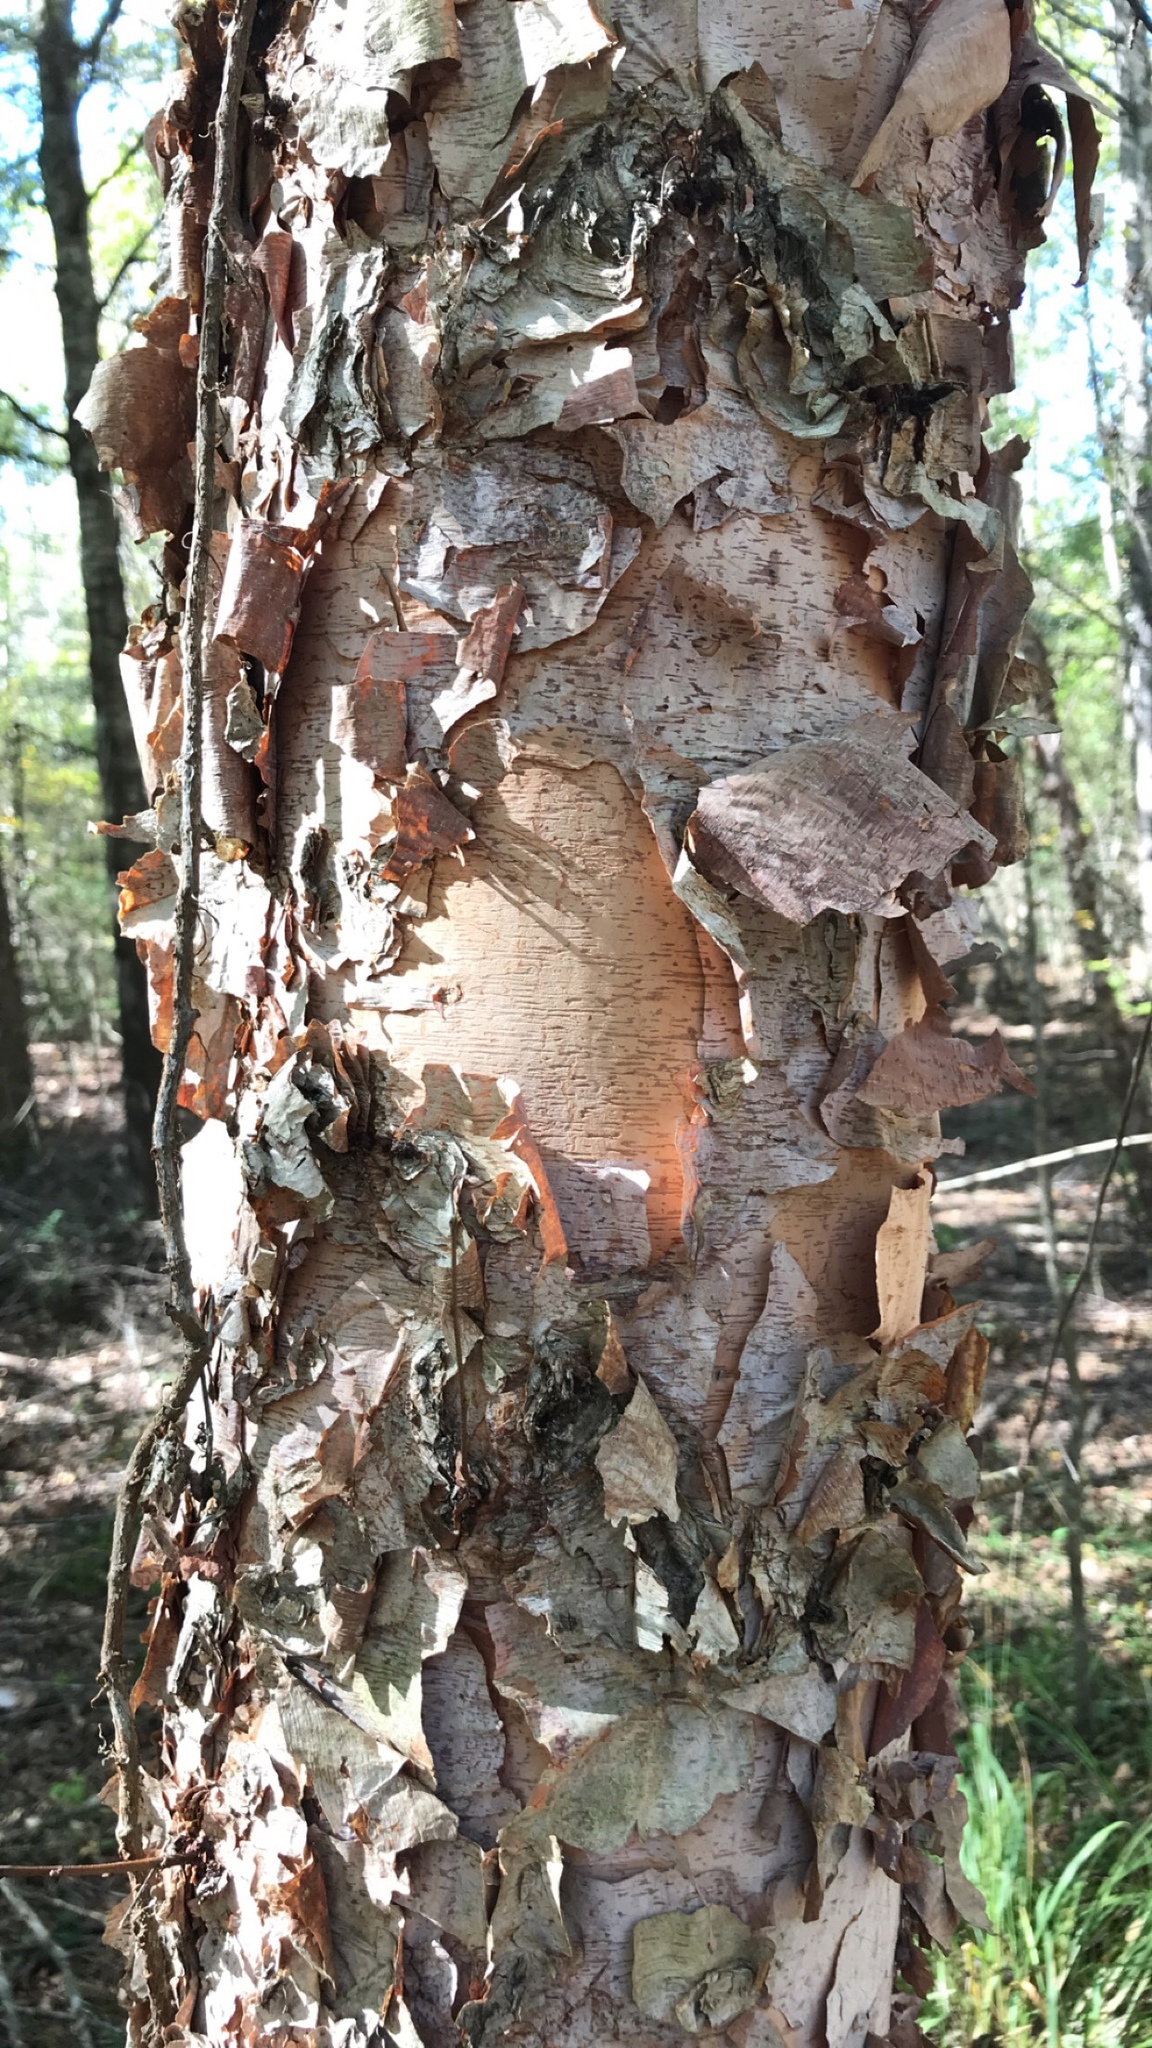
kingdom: Plantae
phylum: Tracheophyta
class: Magnoliopsida
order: Fagales
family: Betulaceae
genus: Betula
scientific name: Betula nigra
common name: Black birch
